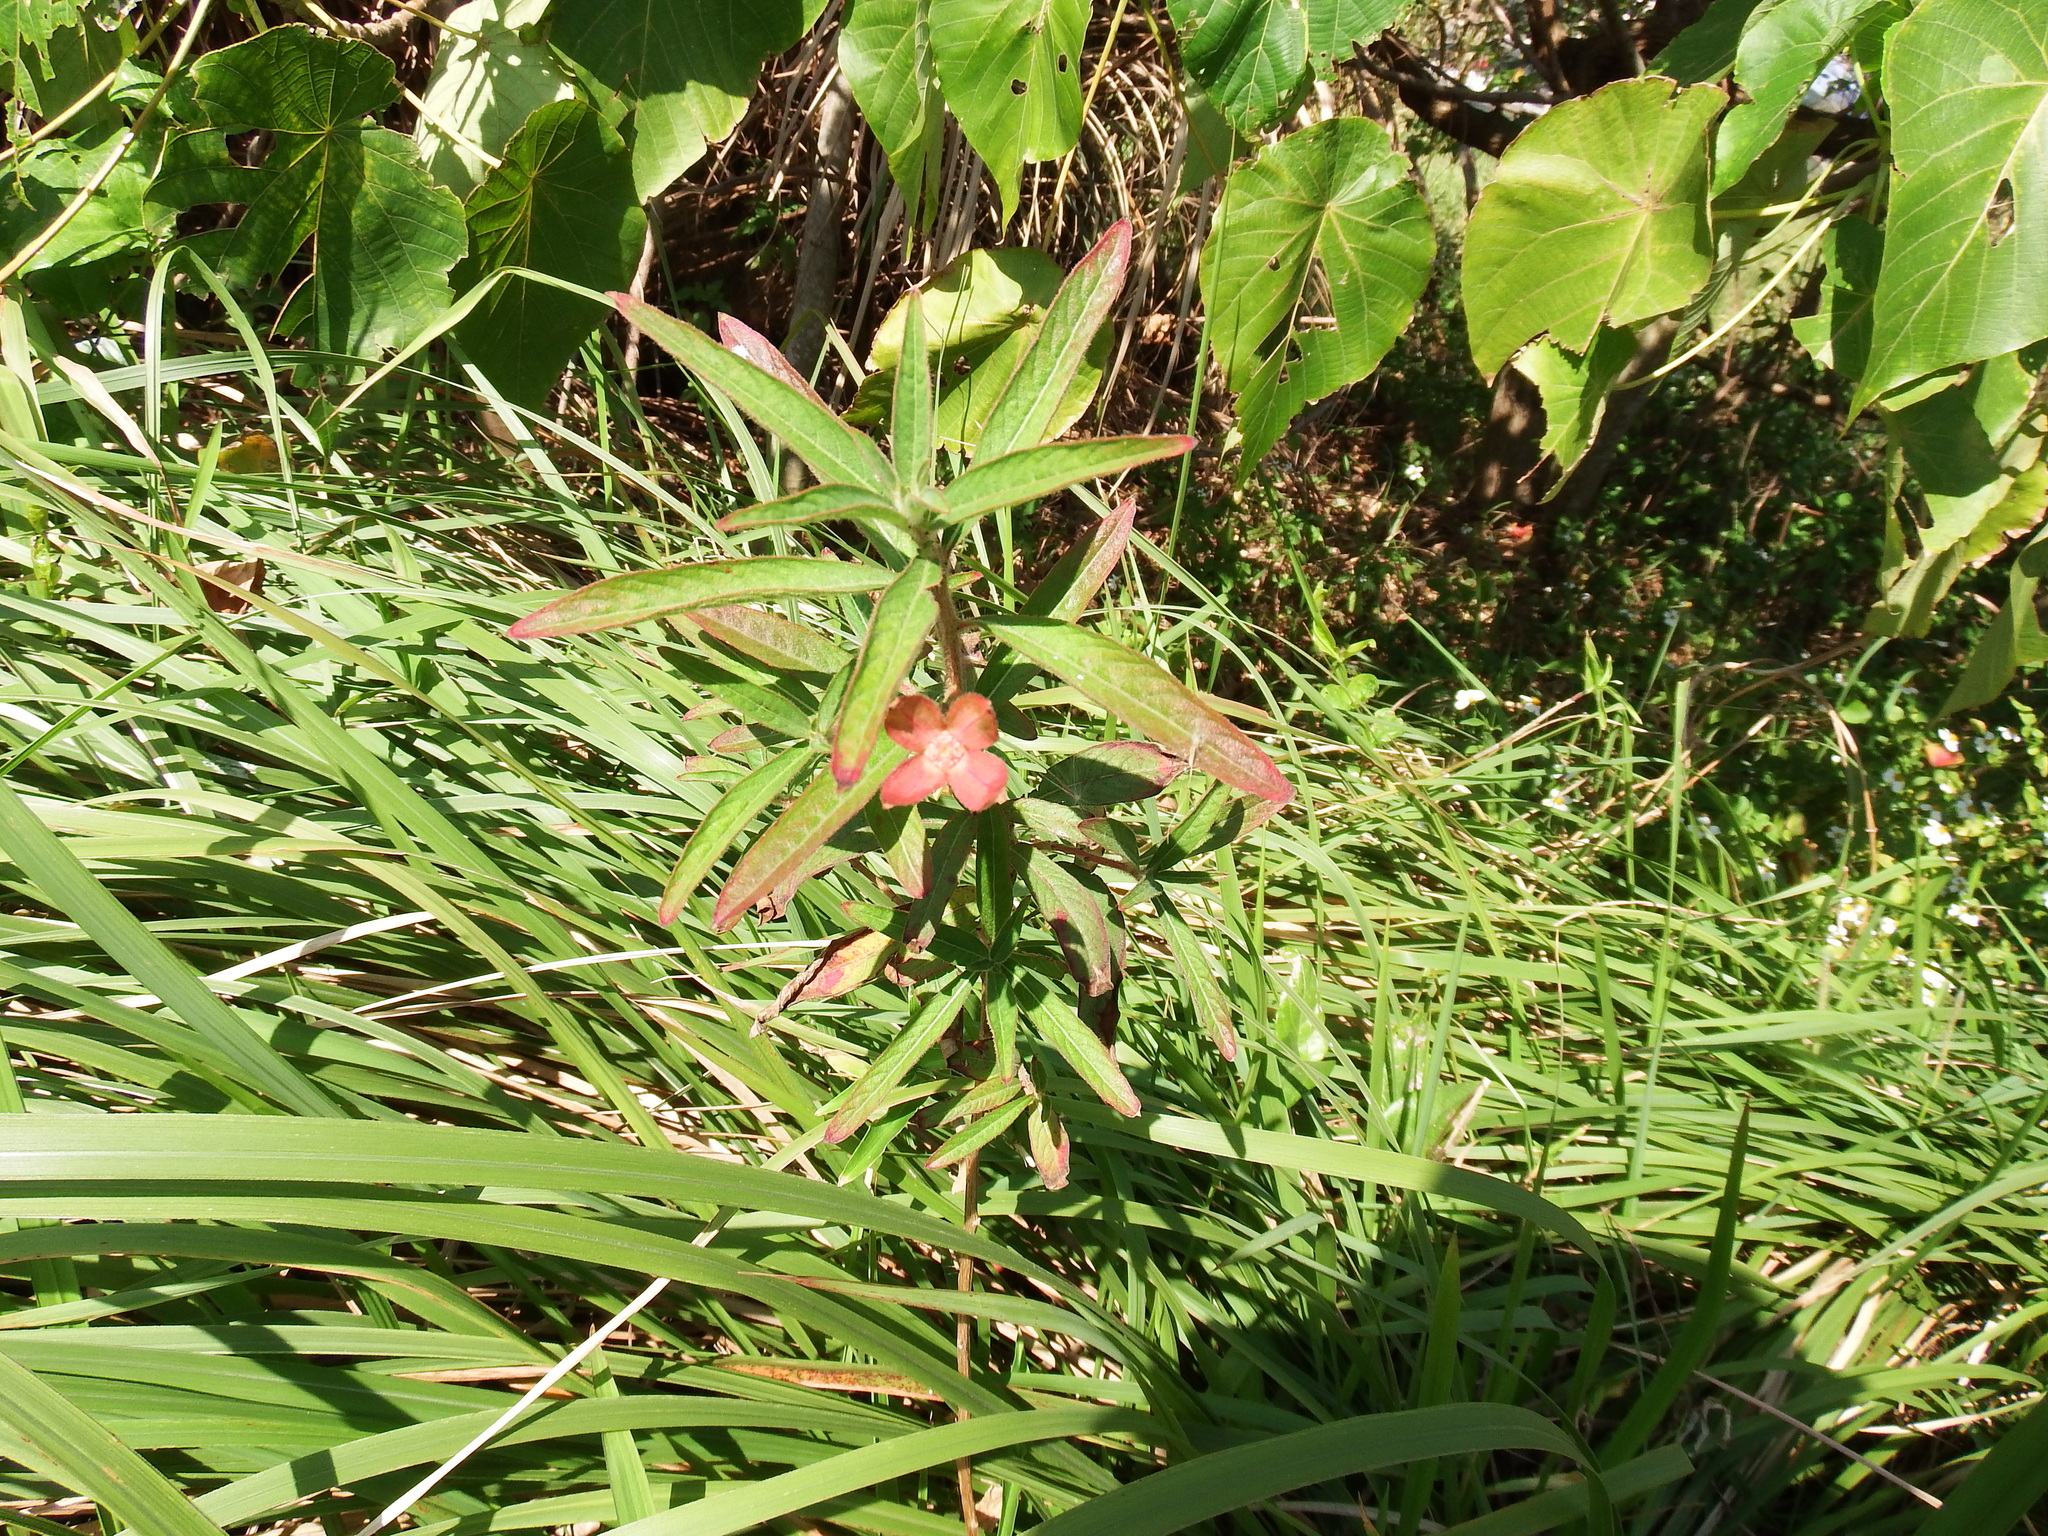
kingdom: Plantae
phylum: Tracheophyta
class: Magnoliopsida
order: Myrtales
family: Onagraceae
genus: Ludwigia
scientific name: Ludwigia octovalvis
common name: Water-primrose
